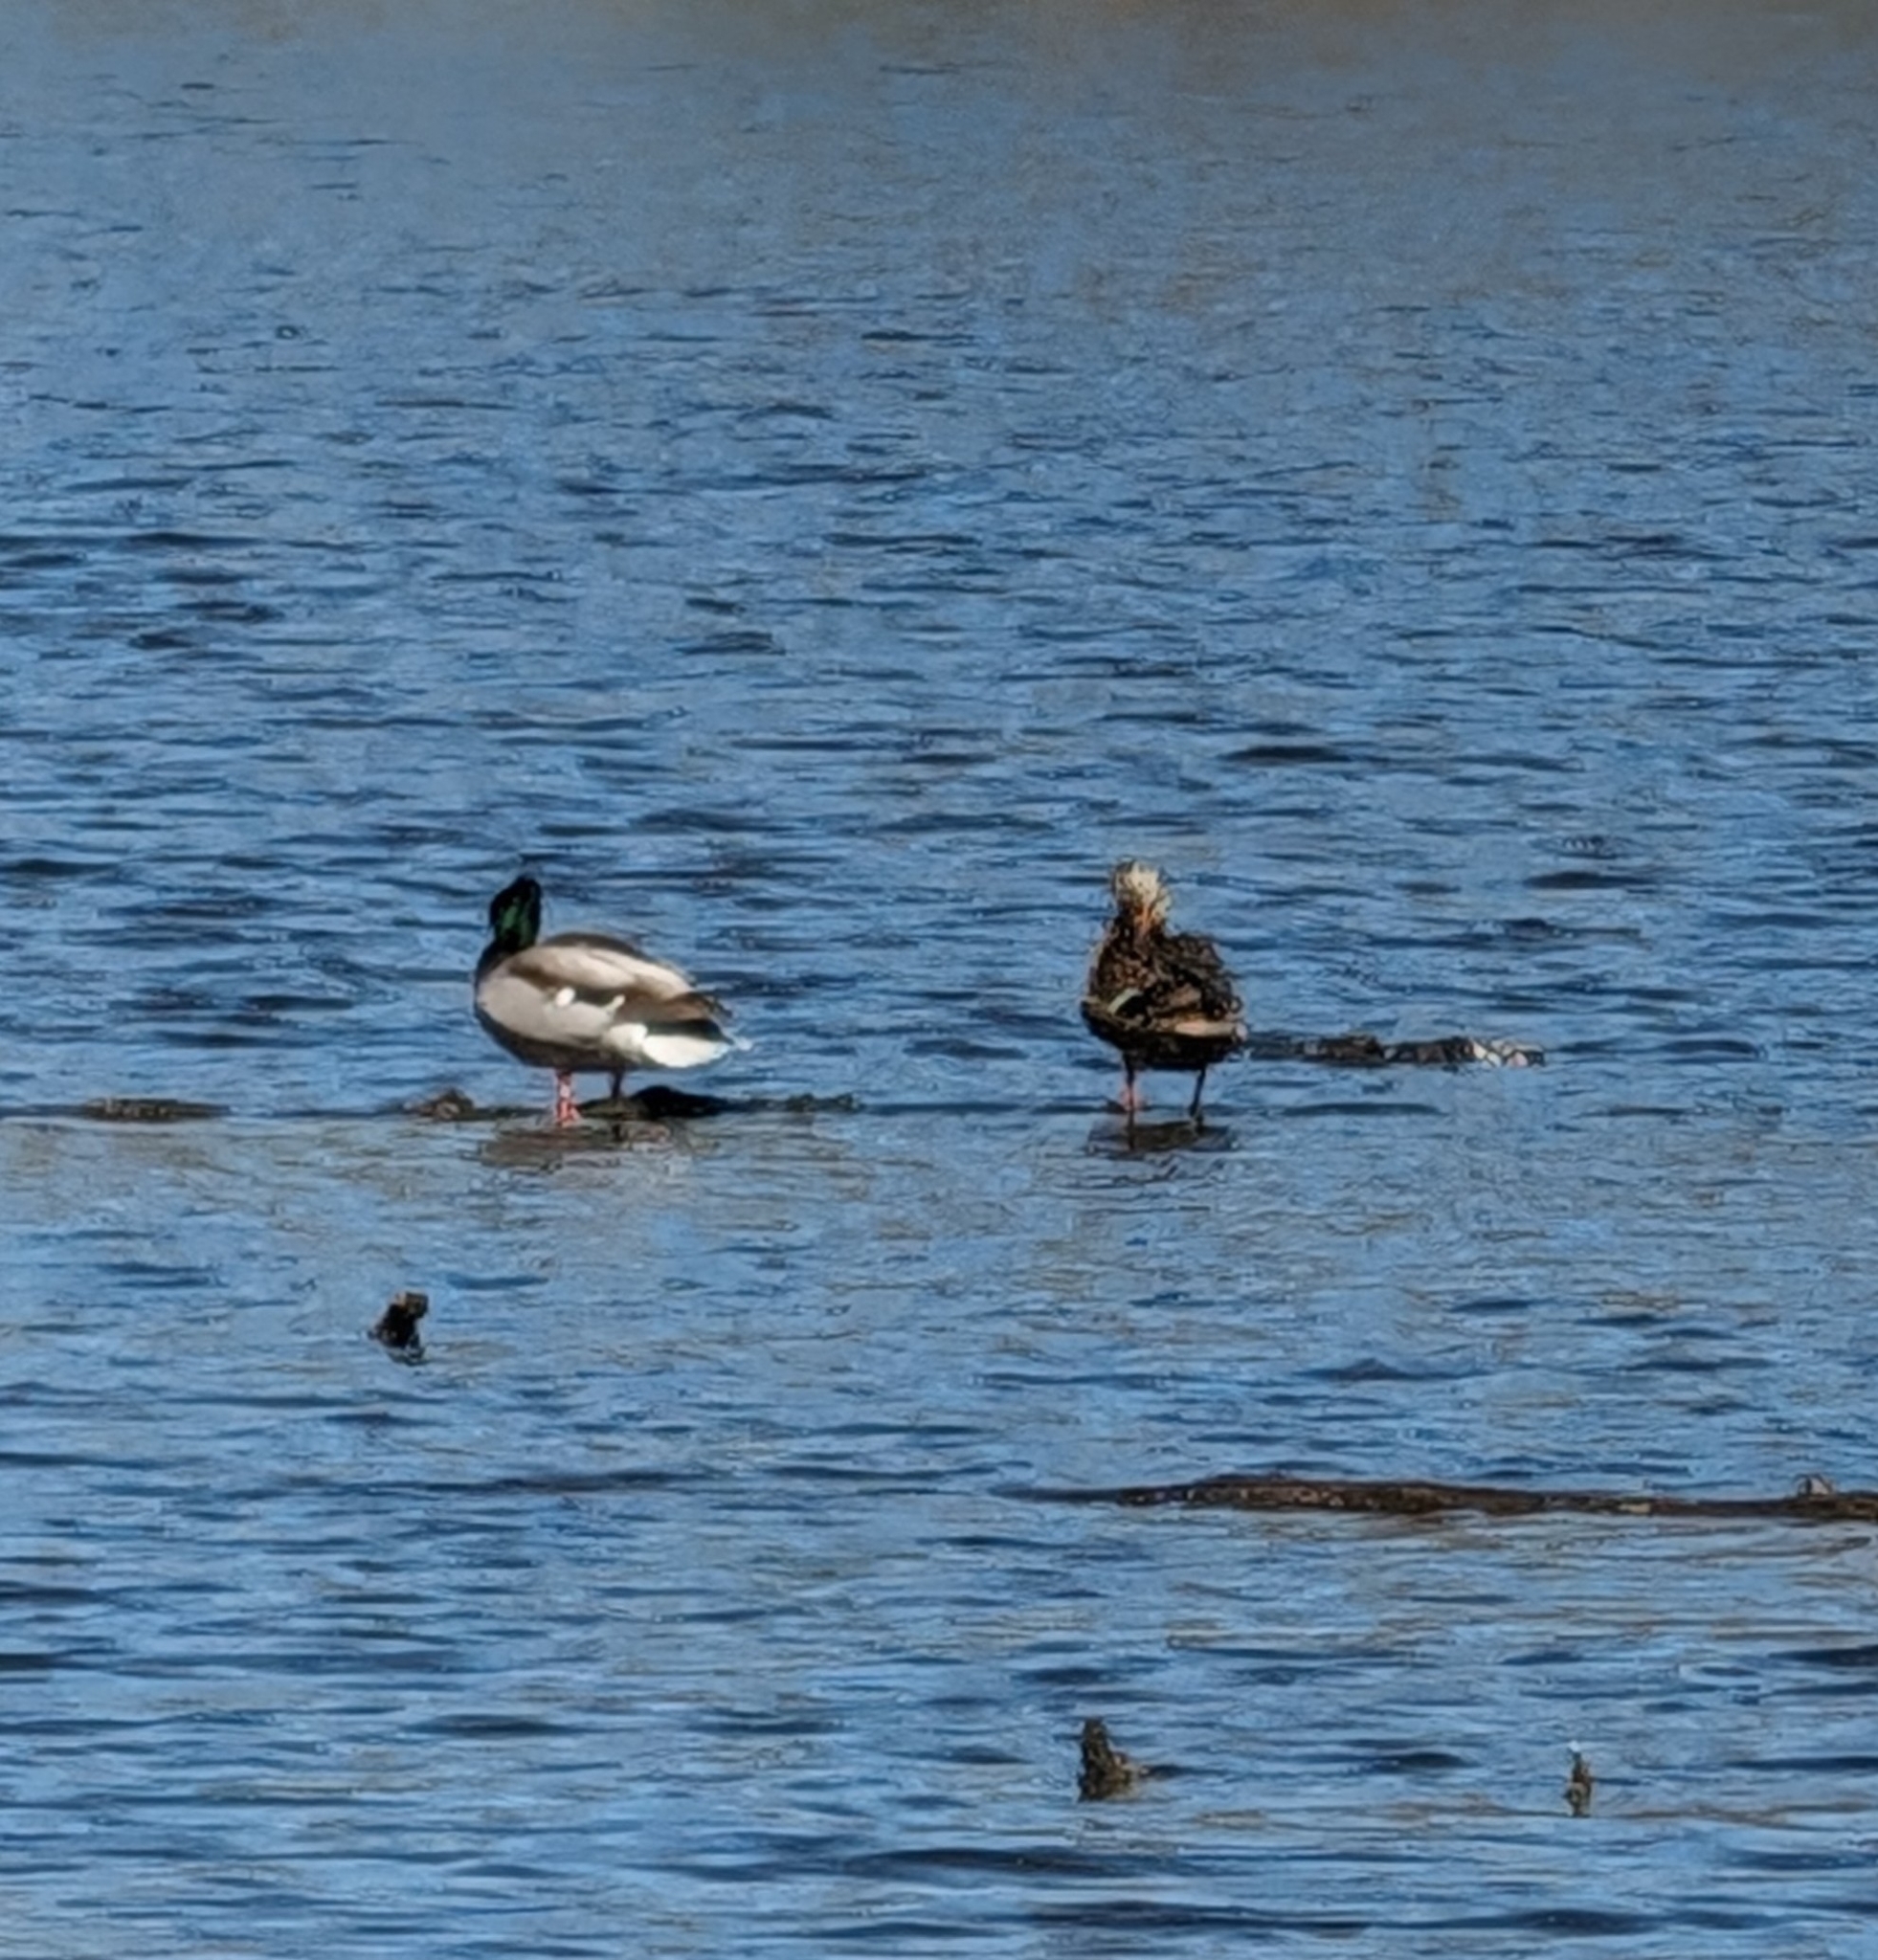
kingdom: Animalia
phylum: Chordata
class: Aves
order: Anseriformes
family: Anatidae
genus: Anas
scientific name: Anas platyrhynchos
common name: Mallard
